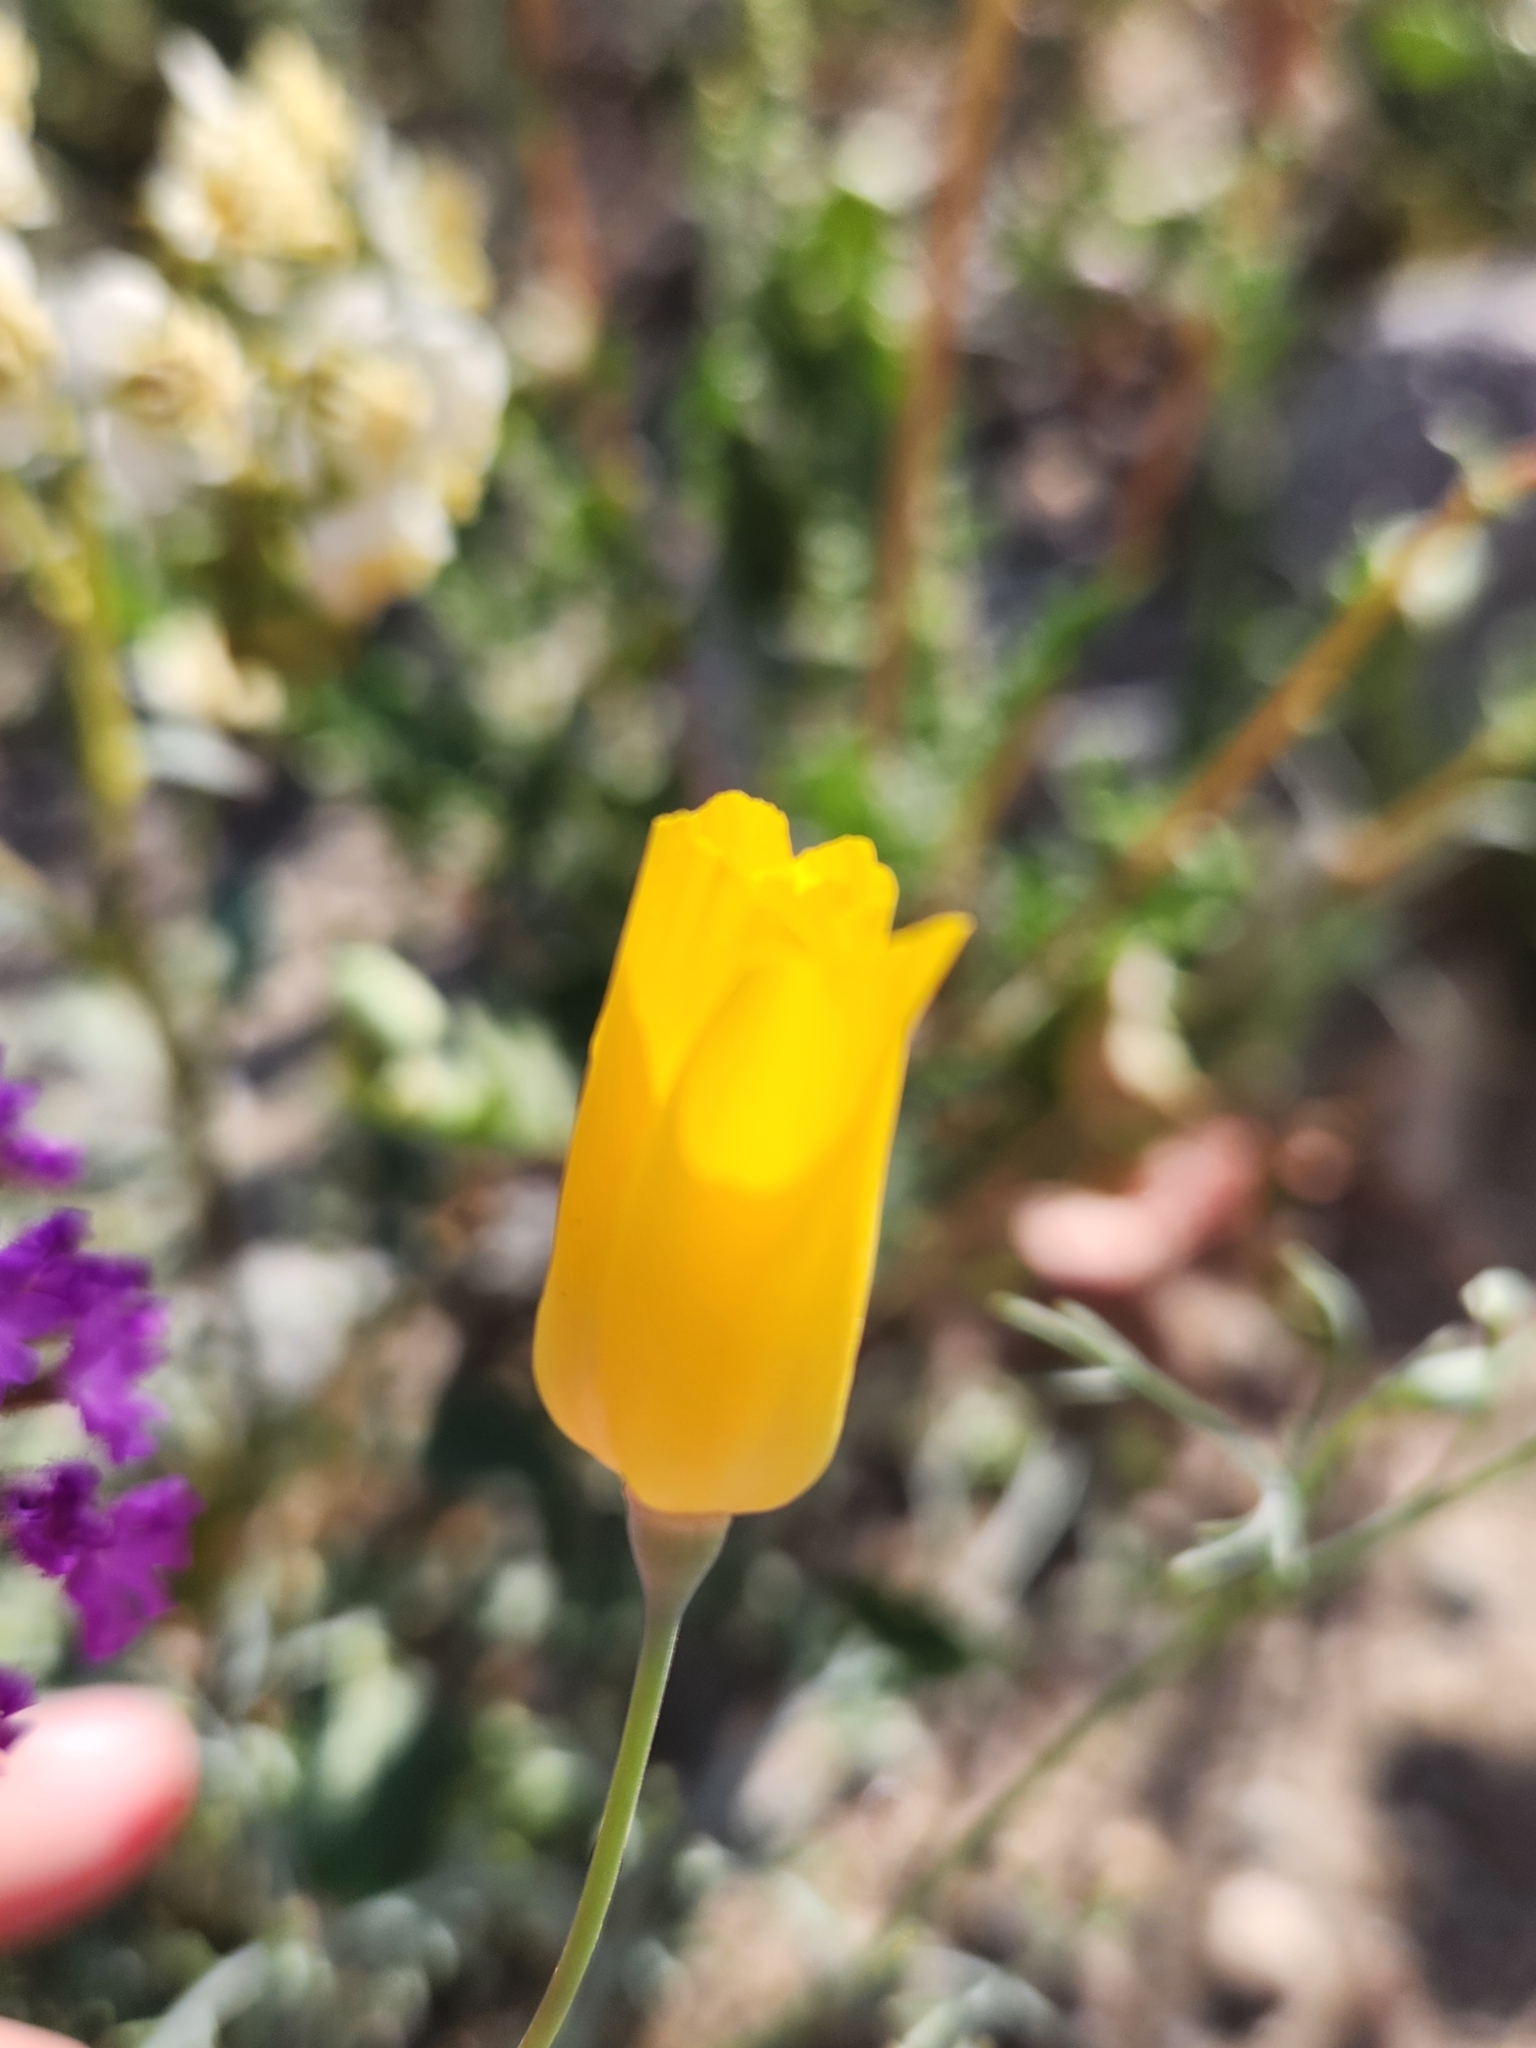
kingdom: Plantae
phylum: Tracheophyta
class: Magnoliopsida
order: Ranunculales
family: Papaveraceae
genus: Eschscholzia
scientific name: Eschscholzia papastillii
